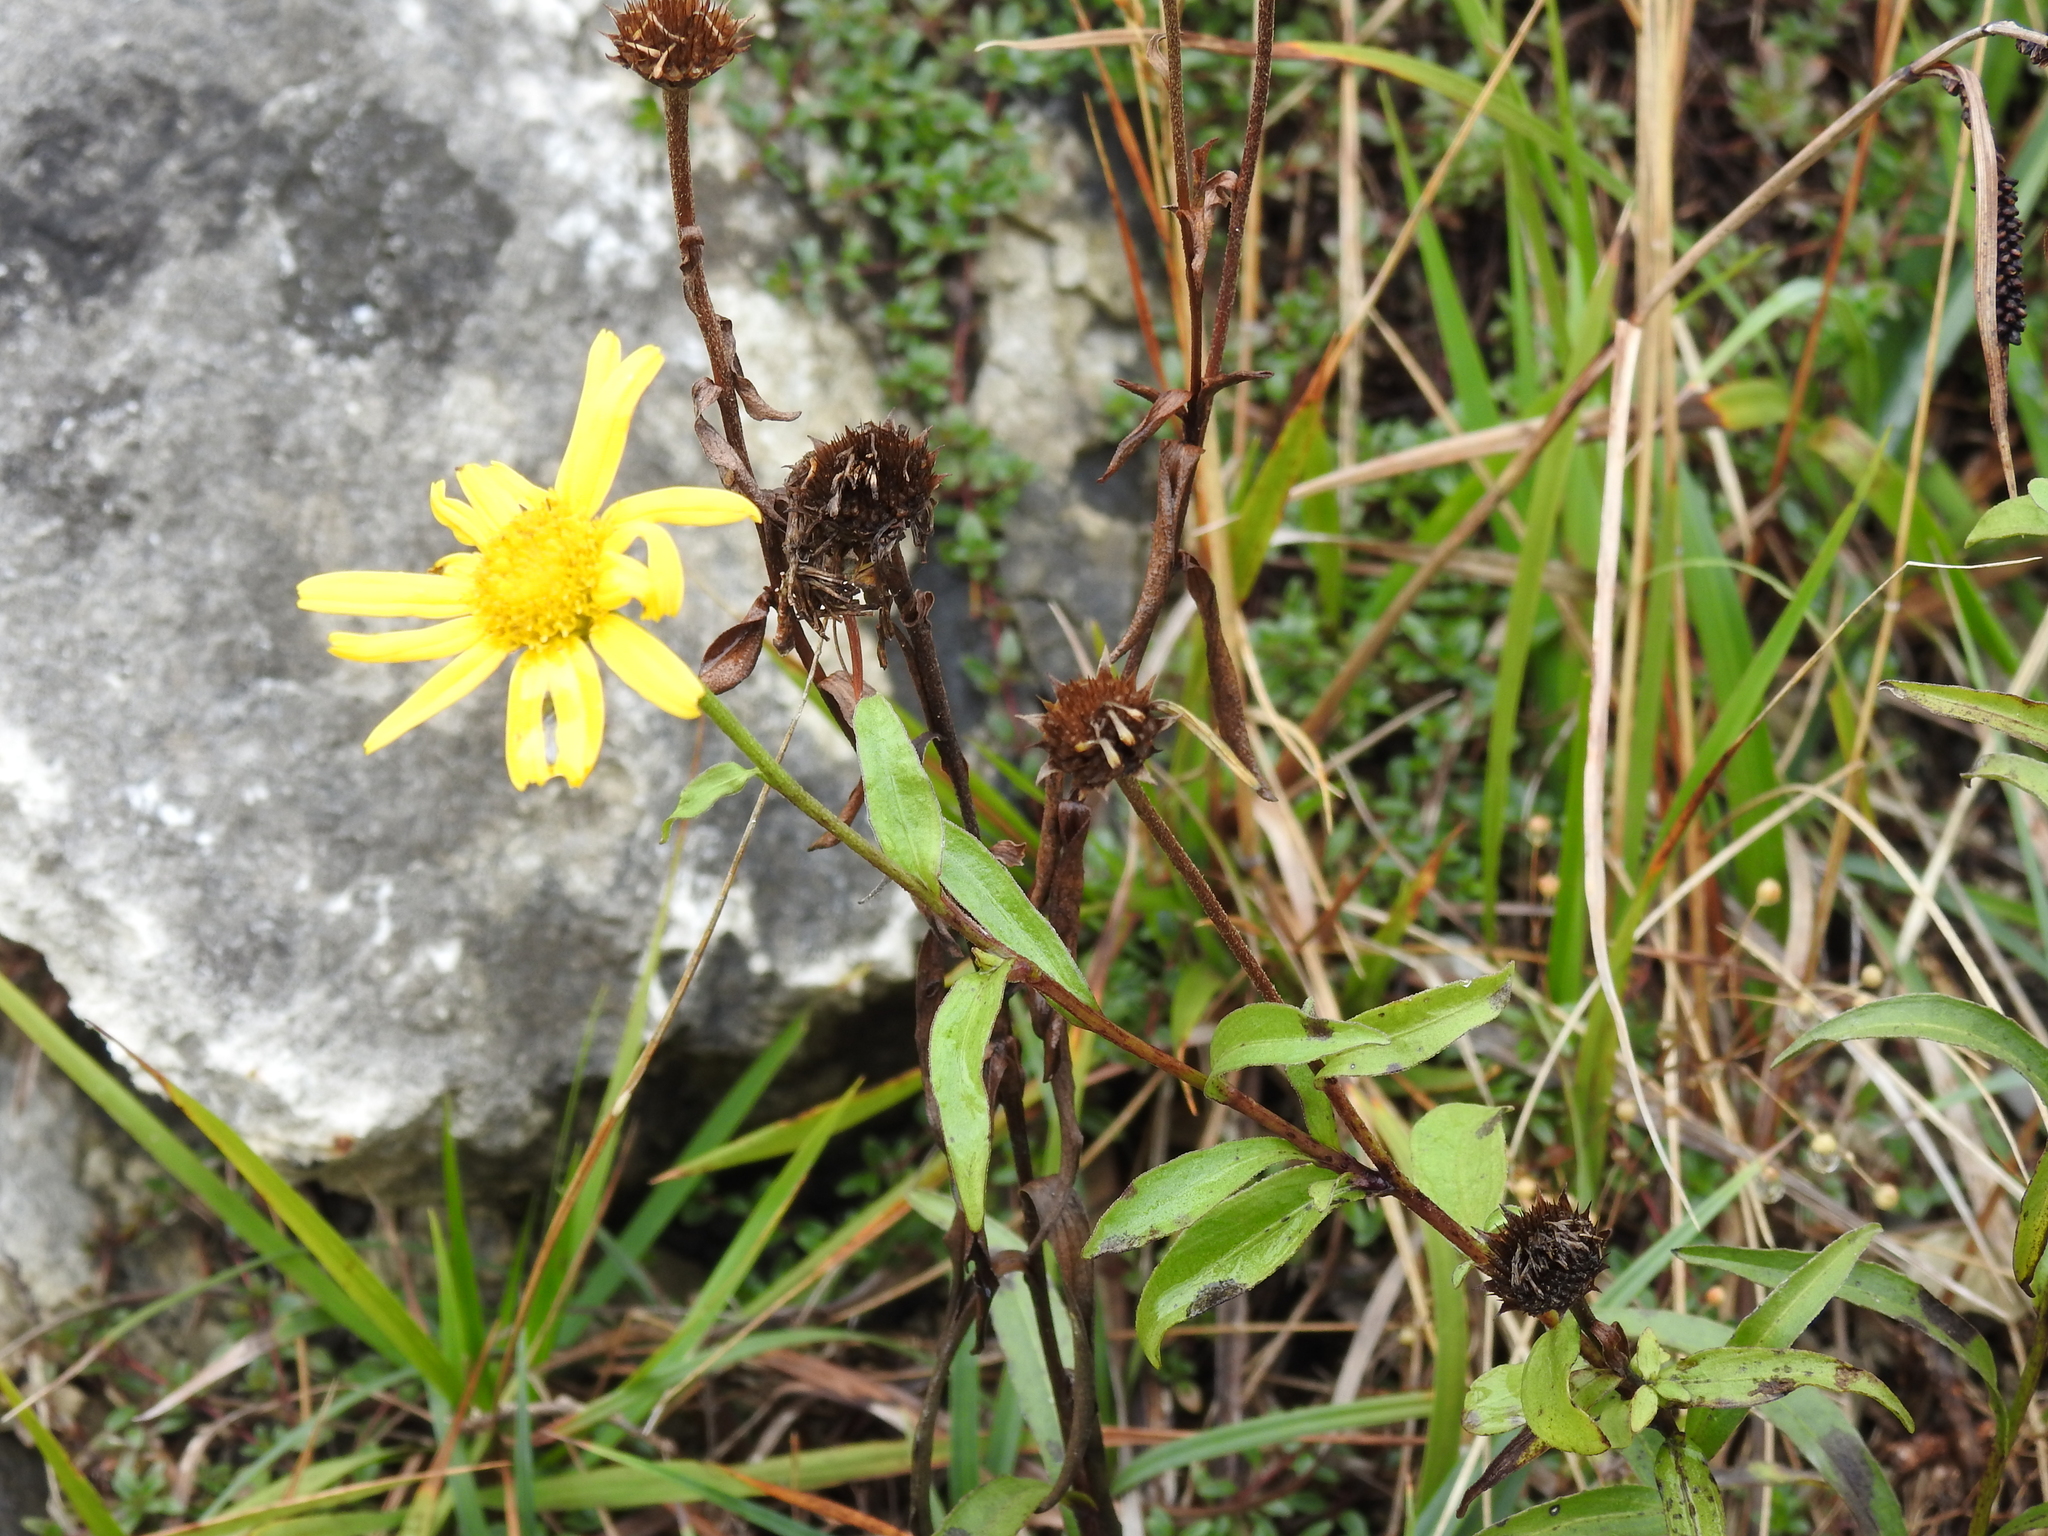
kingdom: Plantae
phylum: Tracheophyta
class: Magnoliopsida
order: Asterales
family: Asteraceae
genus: Buphthalmum
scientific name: Buphthalmum salicifolium
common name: Willow-leaved yellow-oxeye
